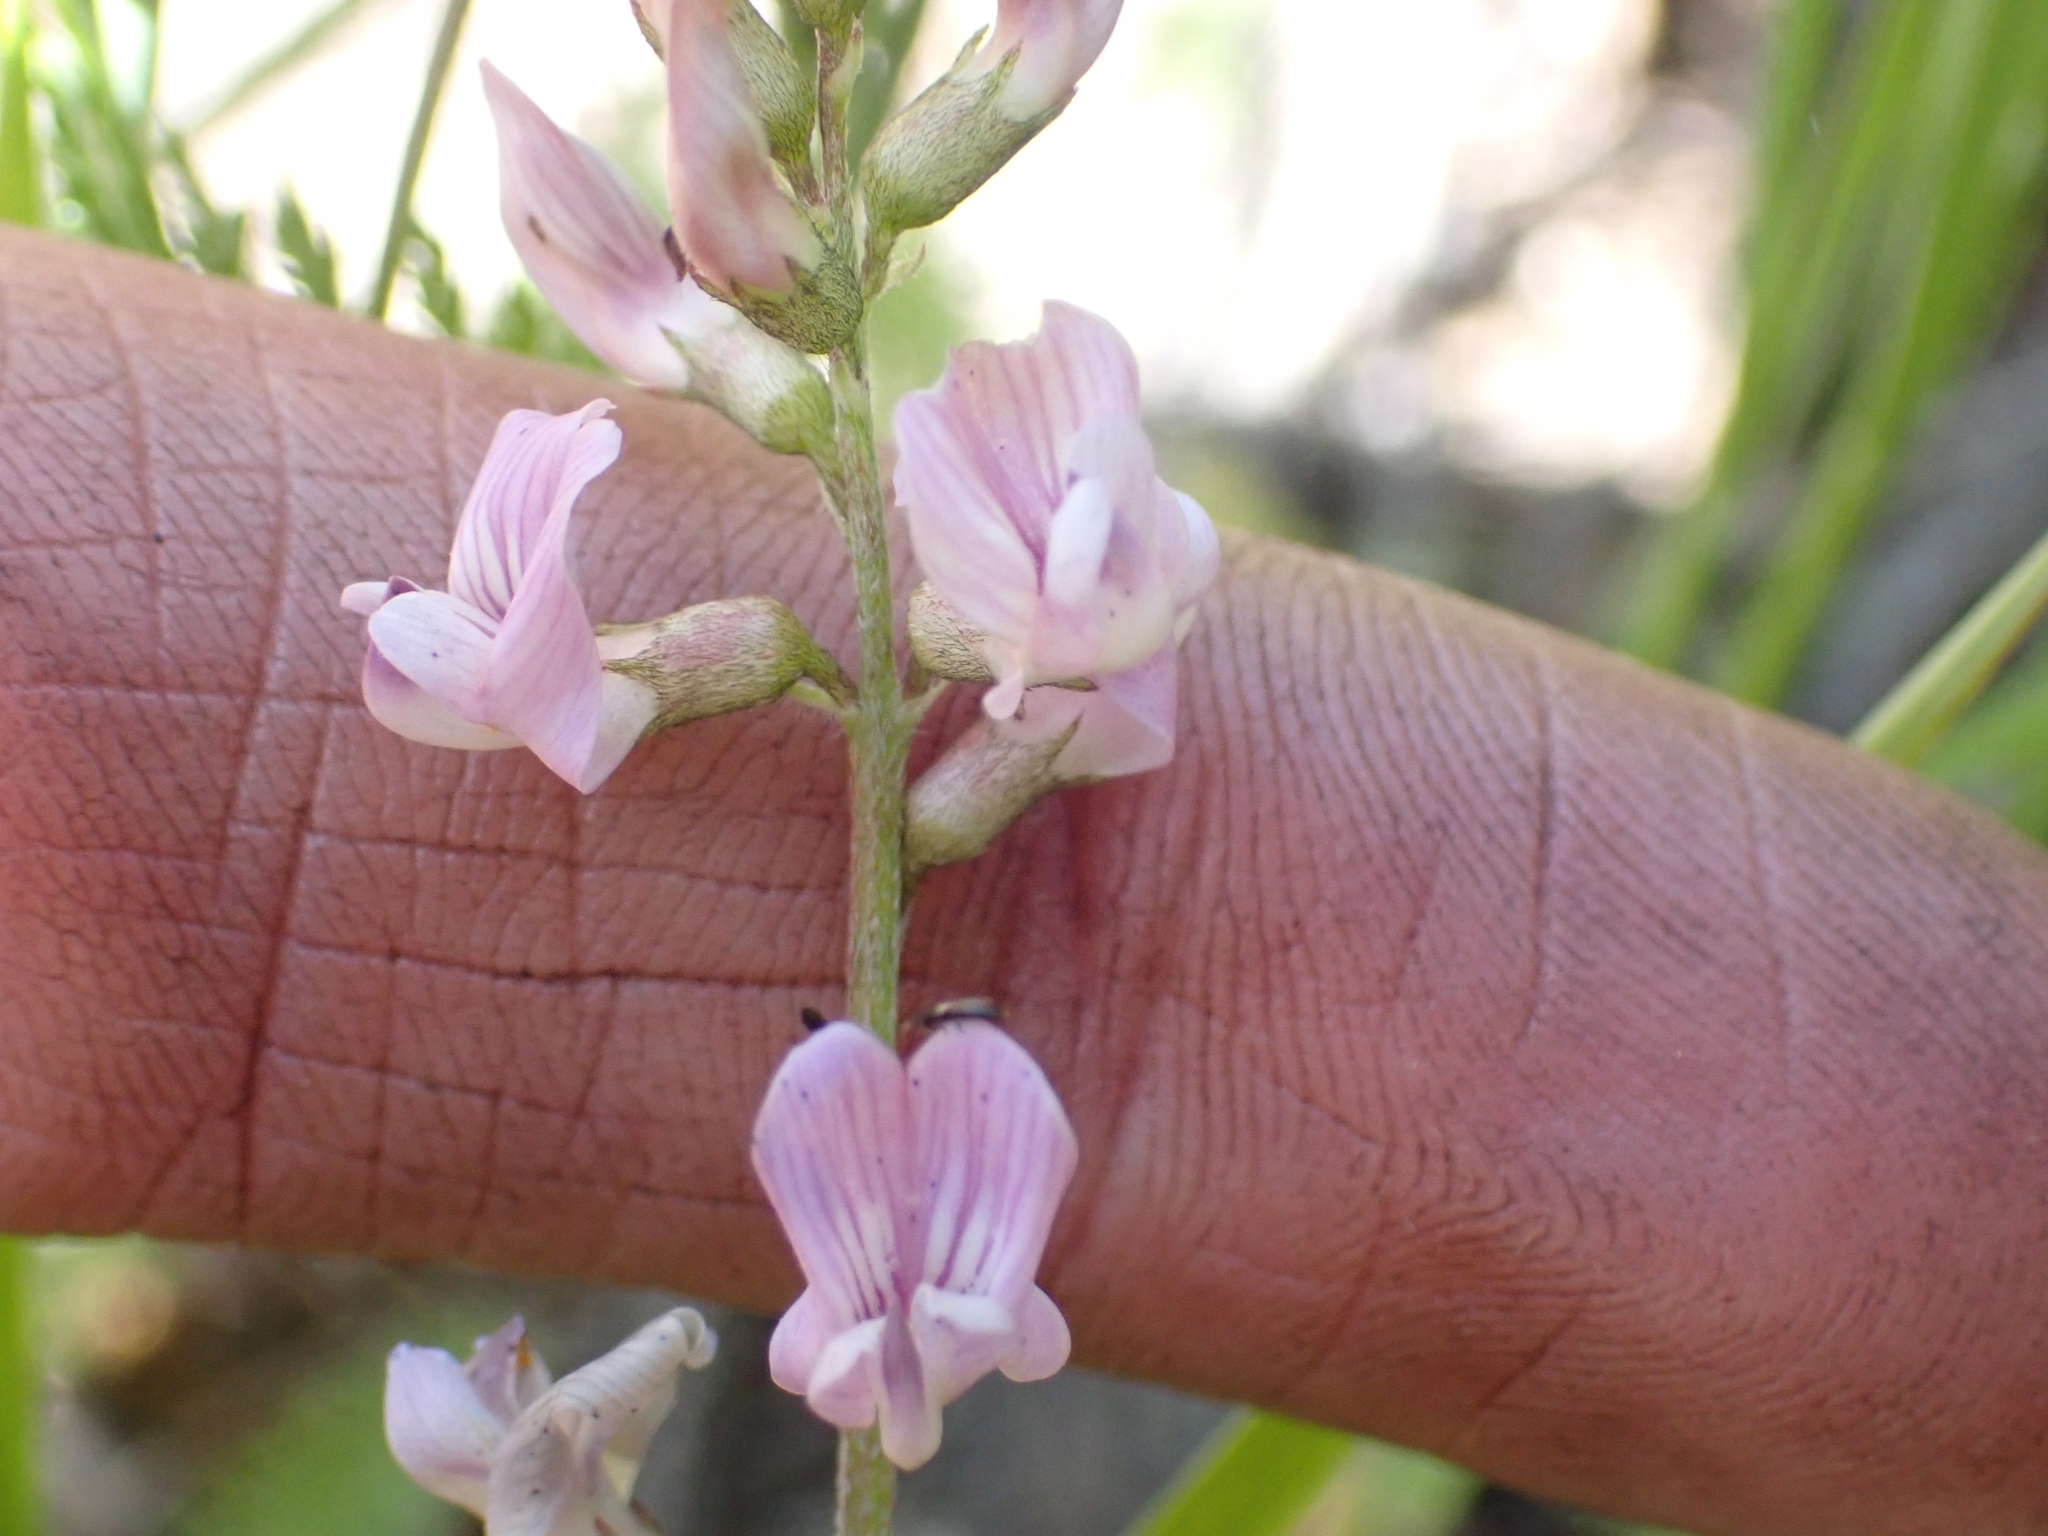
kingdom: Plantae
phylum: Tracheophyta
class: Magnoliopsida
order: Fabales
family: Fabaceae
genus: Astragalus
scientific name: Astragalus miser
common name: Timber milkvetch
